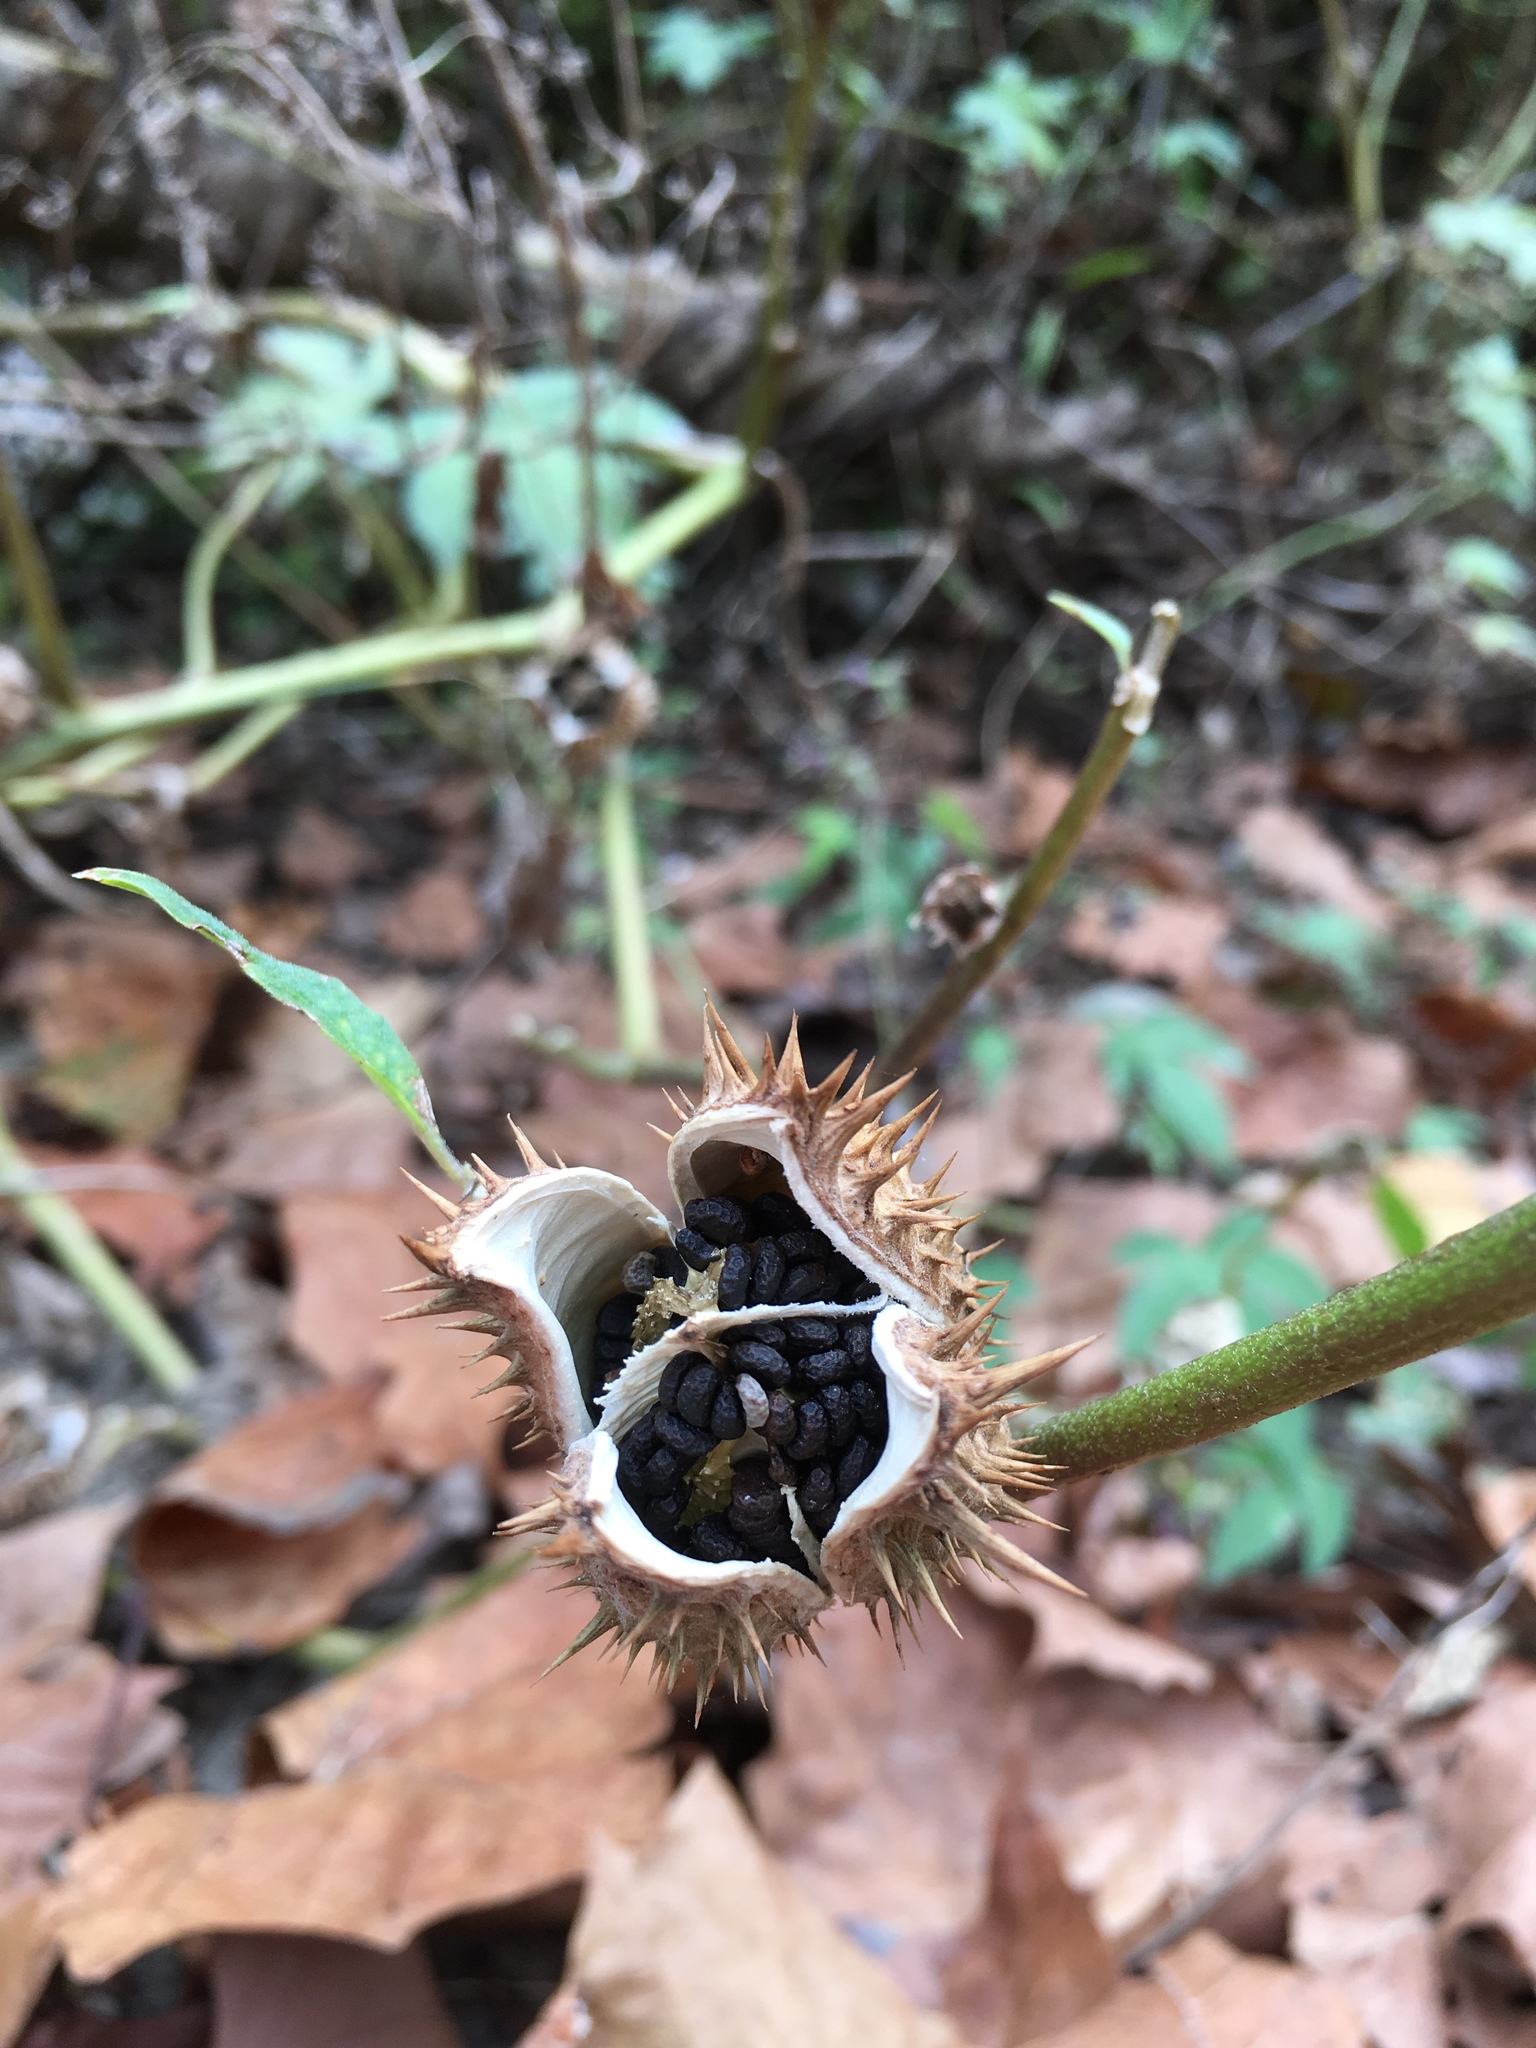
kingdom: Plantae
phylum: Tracheophyta
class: Magnoliopsida
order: Solanales
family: Solanaceae
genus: Datura
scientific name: Datura stramonium
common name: Thorn-apple
